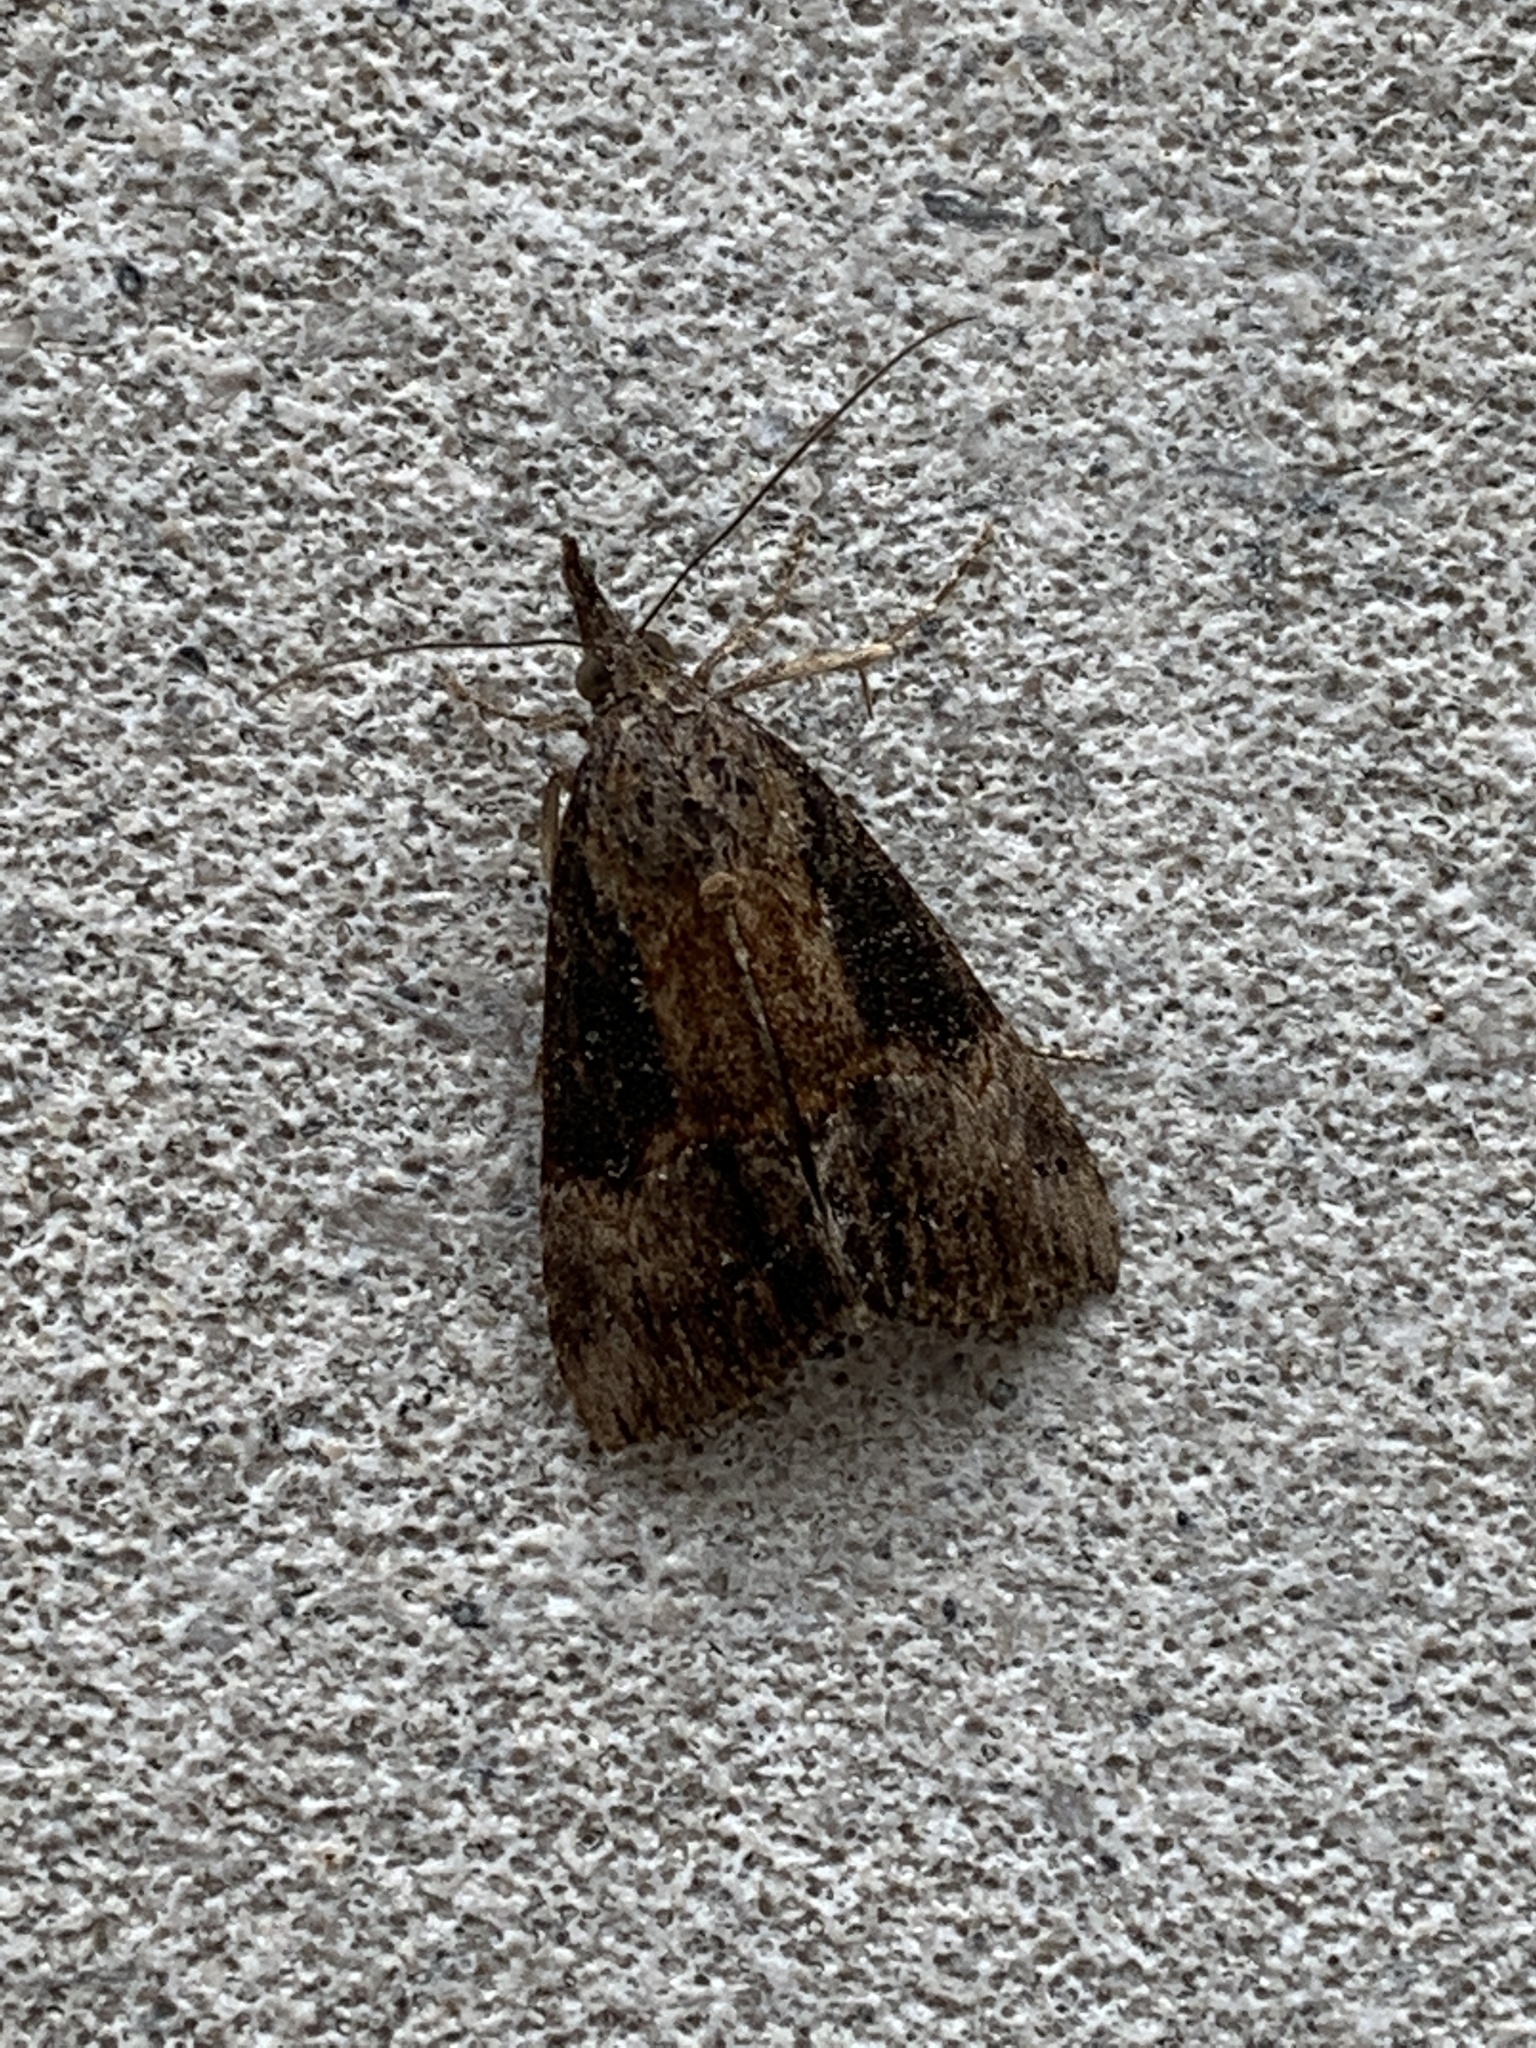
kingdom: Animalia
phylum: Arthropoda
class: Insecta
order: Lepidoptera
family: Erebidae
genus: Hypena
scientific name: Hypena scabra
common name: Green cloverworm
